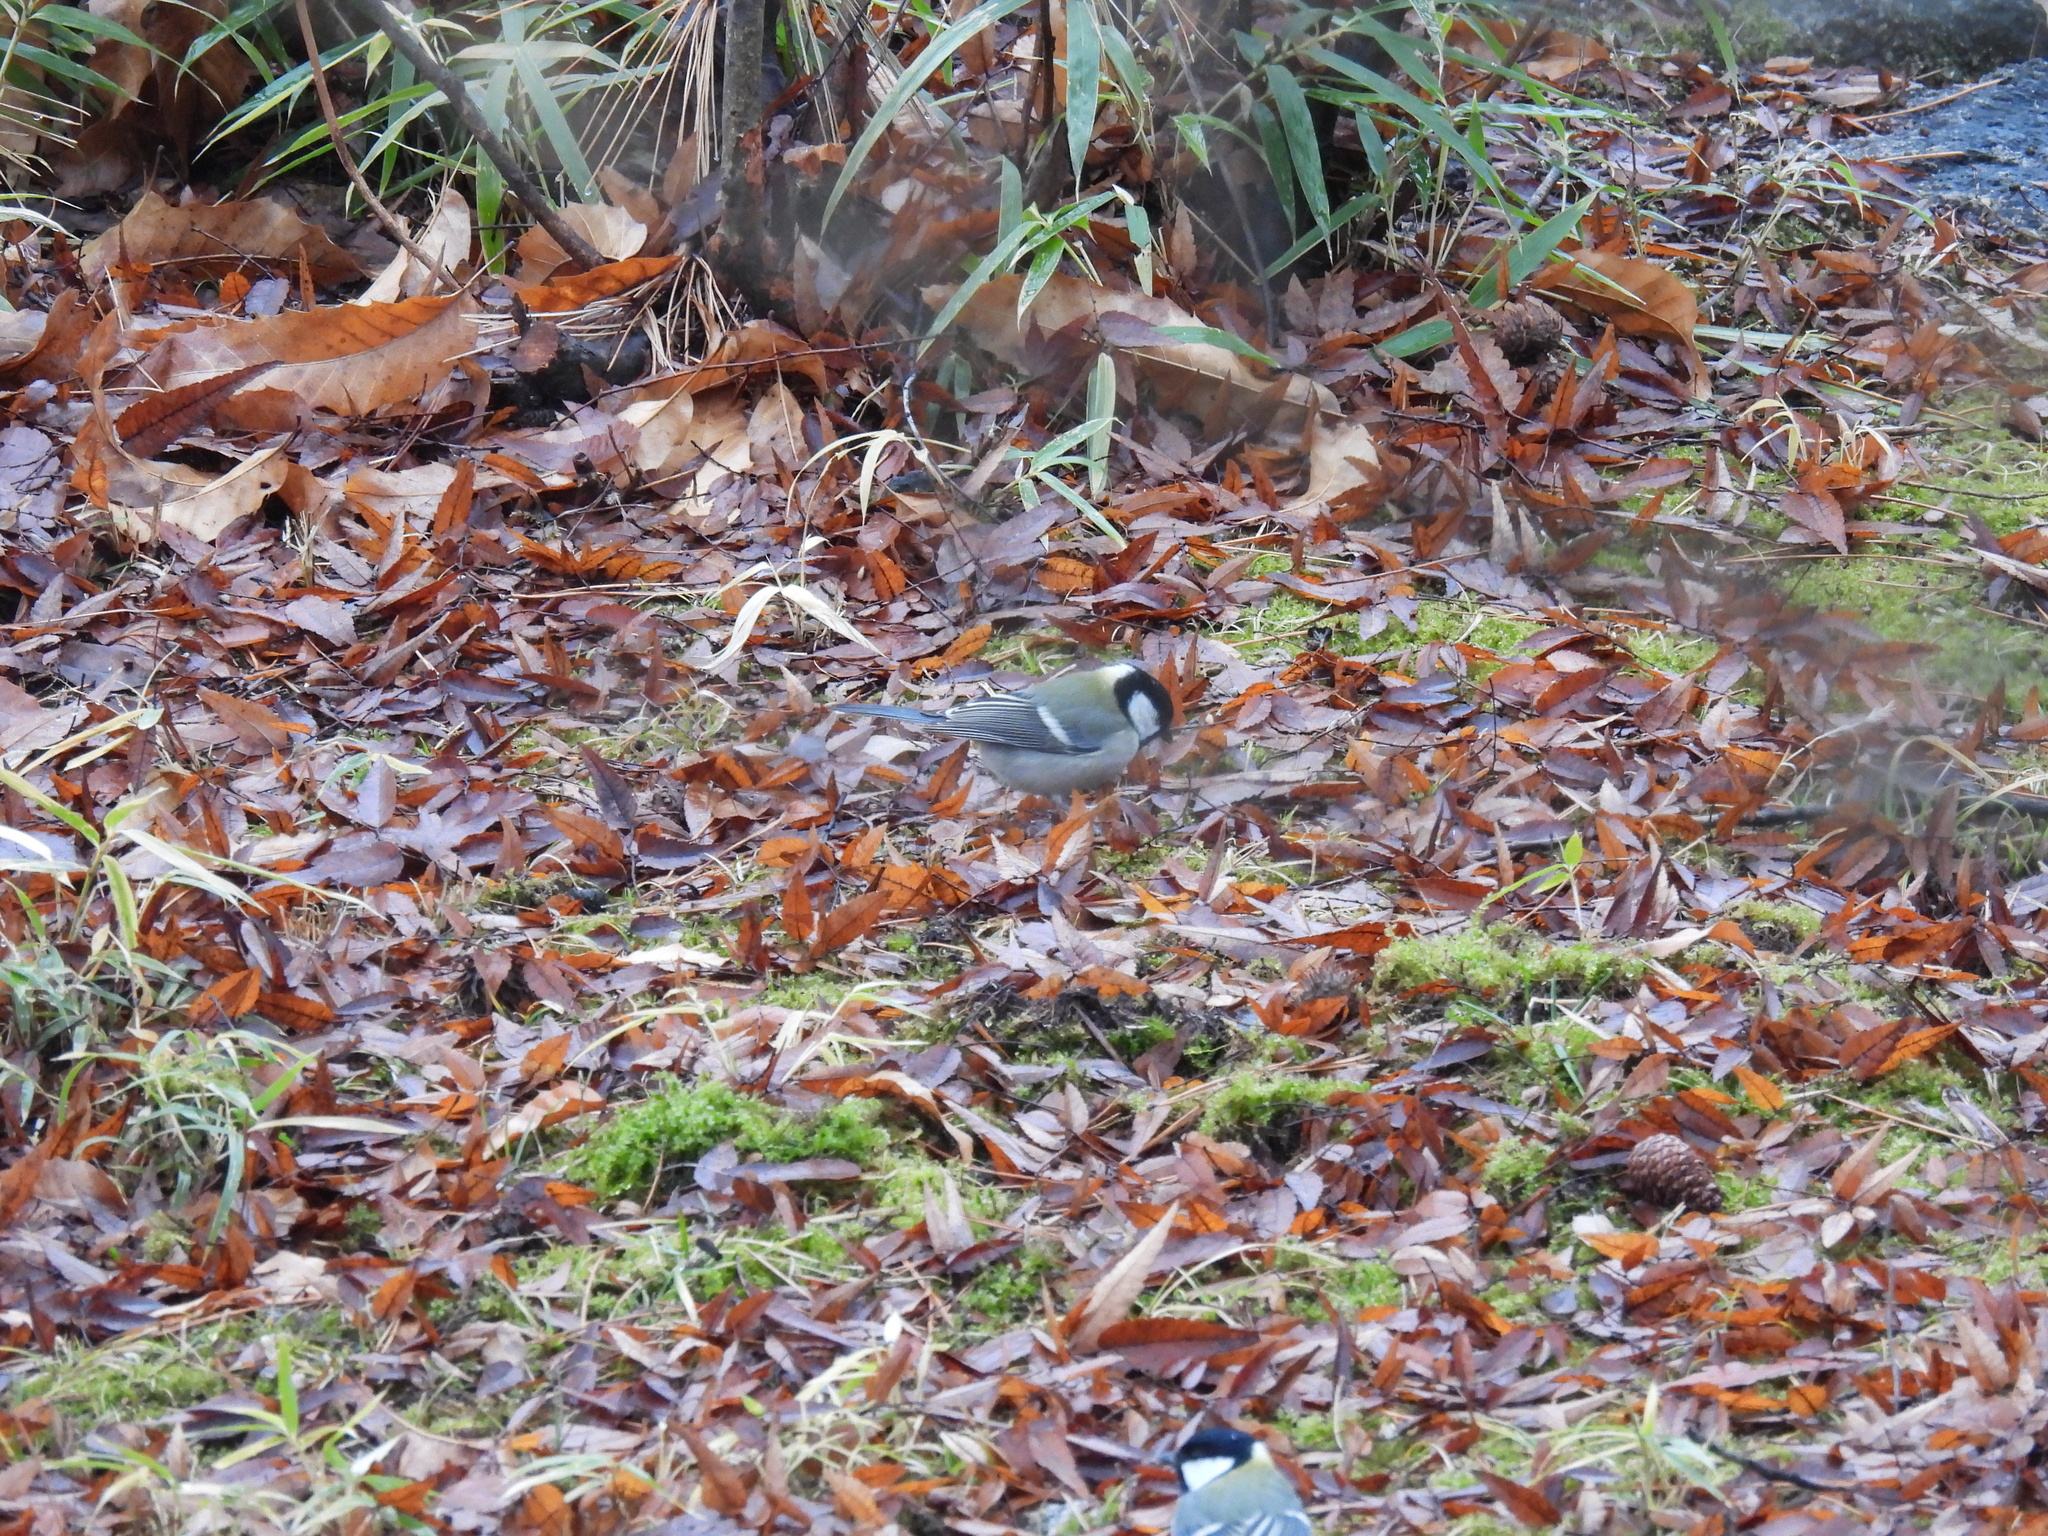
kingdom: Animalia
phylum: Chordata
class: Aves
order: Passeriformes
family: Paridae
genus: Parus
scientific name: Parus minor
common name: Japanese tit
